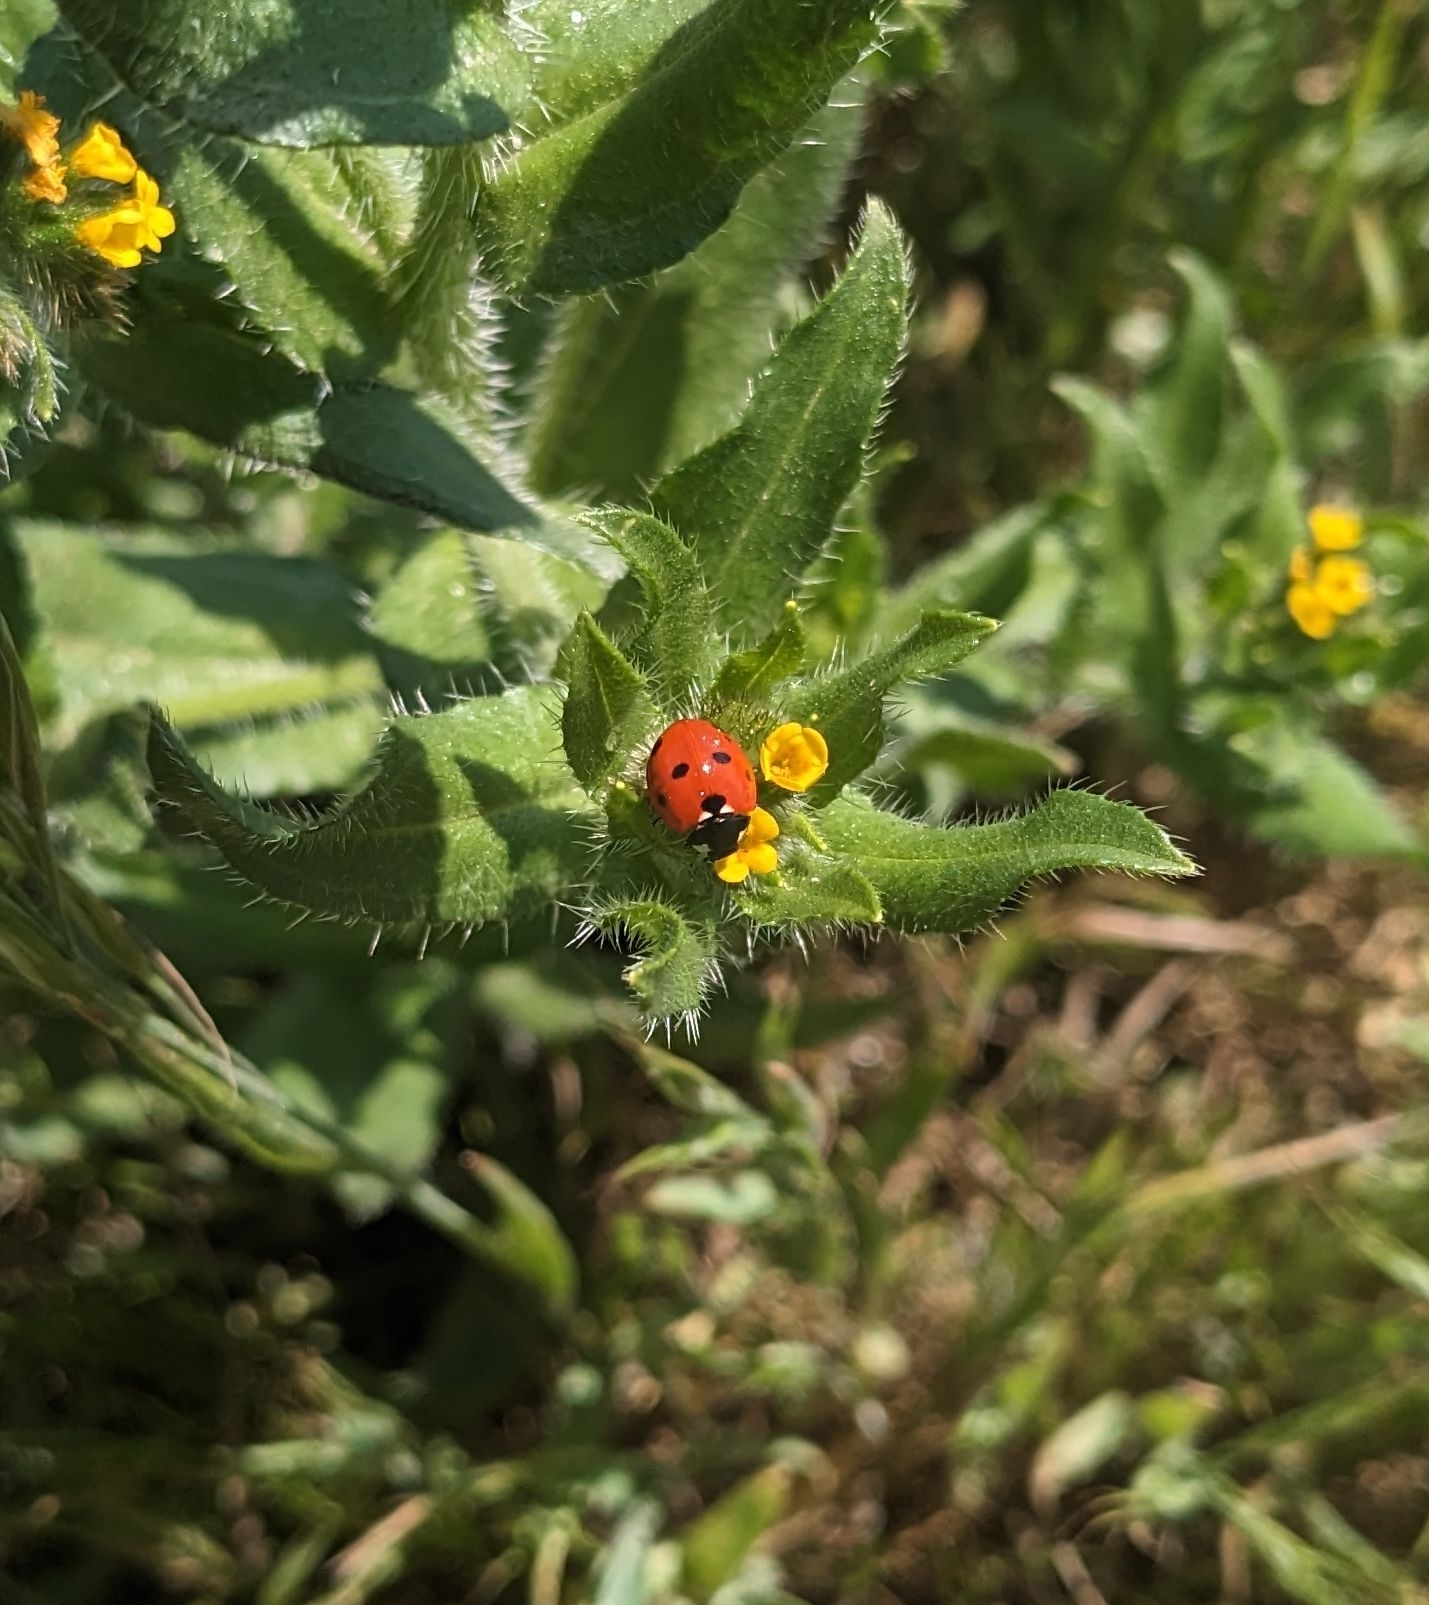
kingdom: Animalia
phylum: Arthropoda
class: Insecta
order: Coleoptera
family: Coccinellidae
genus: Coccinella
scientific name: Coccinella septempunctata
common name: Sevenspotted lady beetle
